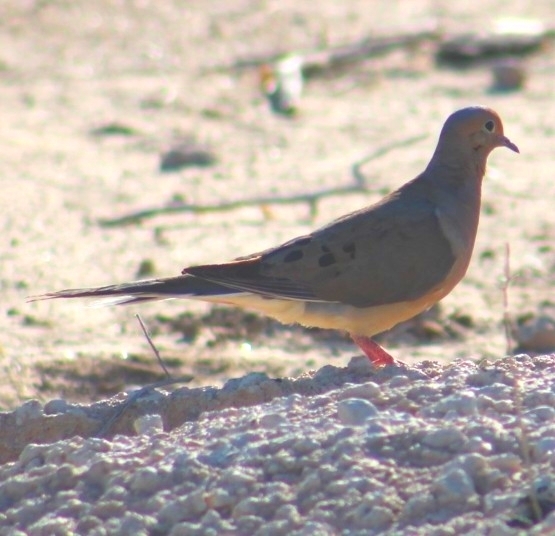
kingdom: Animalia
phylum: Chordata
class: Aves
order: Columbiformes
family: Columbidae
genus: Zenaida
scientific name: Zenaida macroura
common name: Mourning dove
